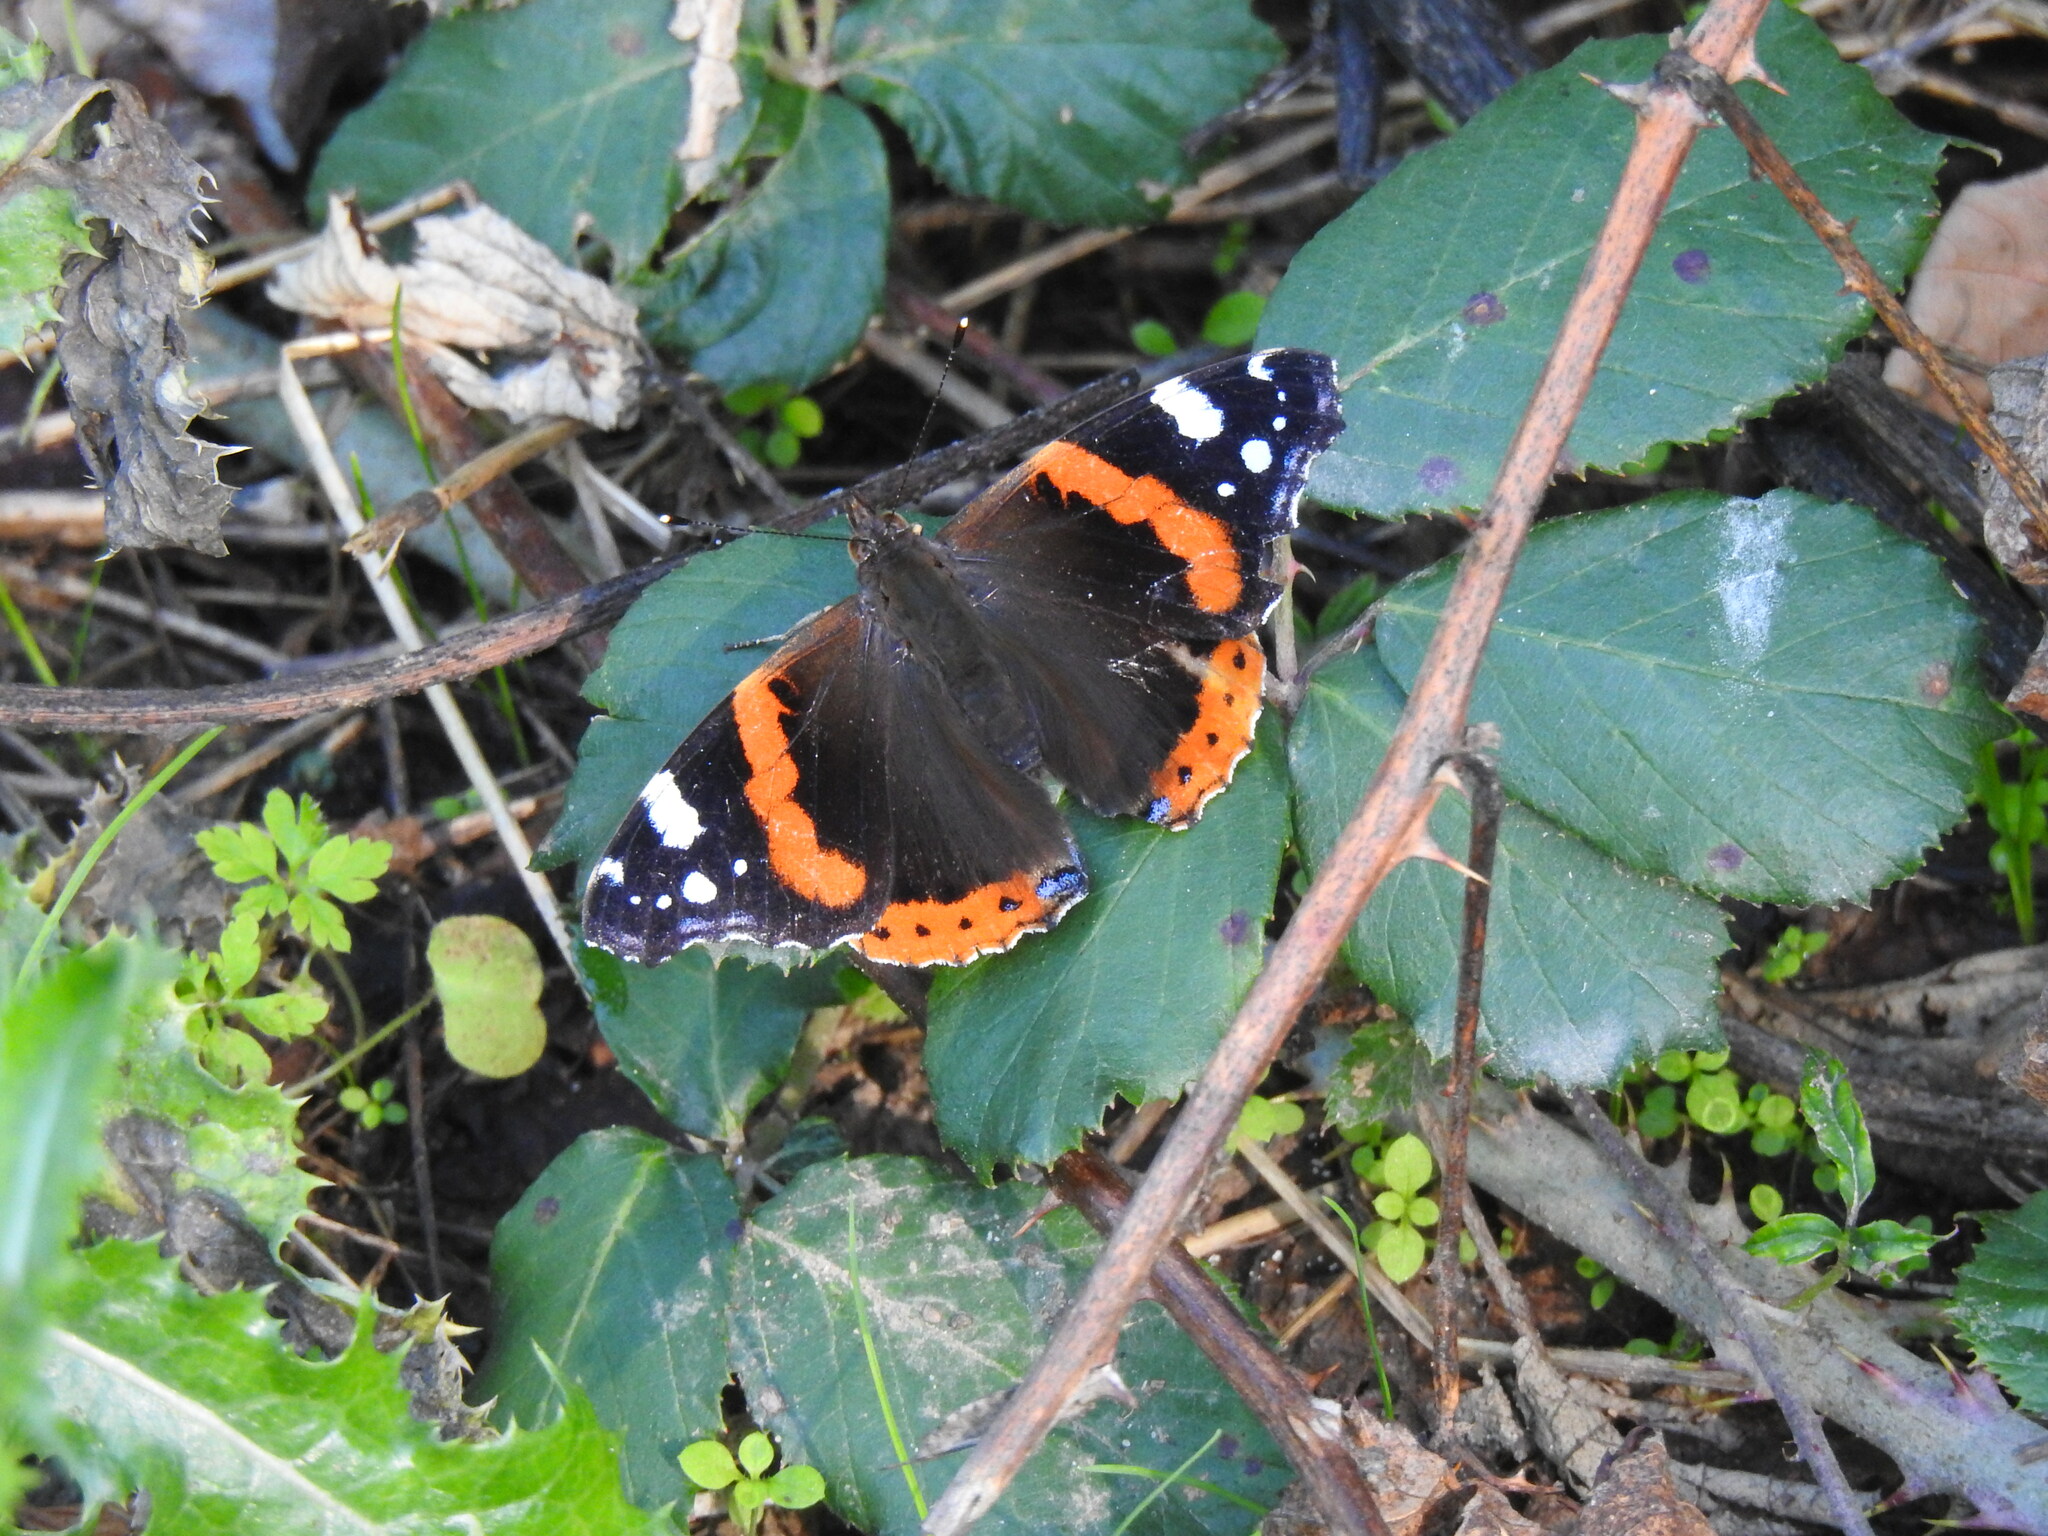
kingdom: Animalia
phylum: Arthropoda
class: Insecta
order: Lepidoptera
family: Nymphalidae
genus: Vanessa
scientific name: Vanessa atalanta
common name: Red admiral
